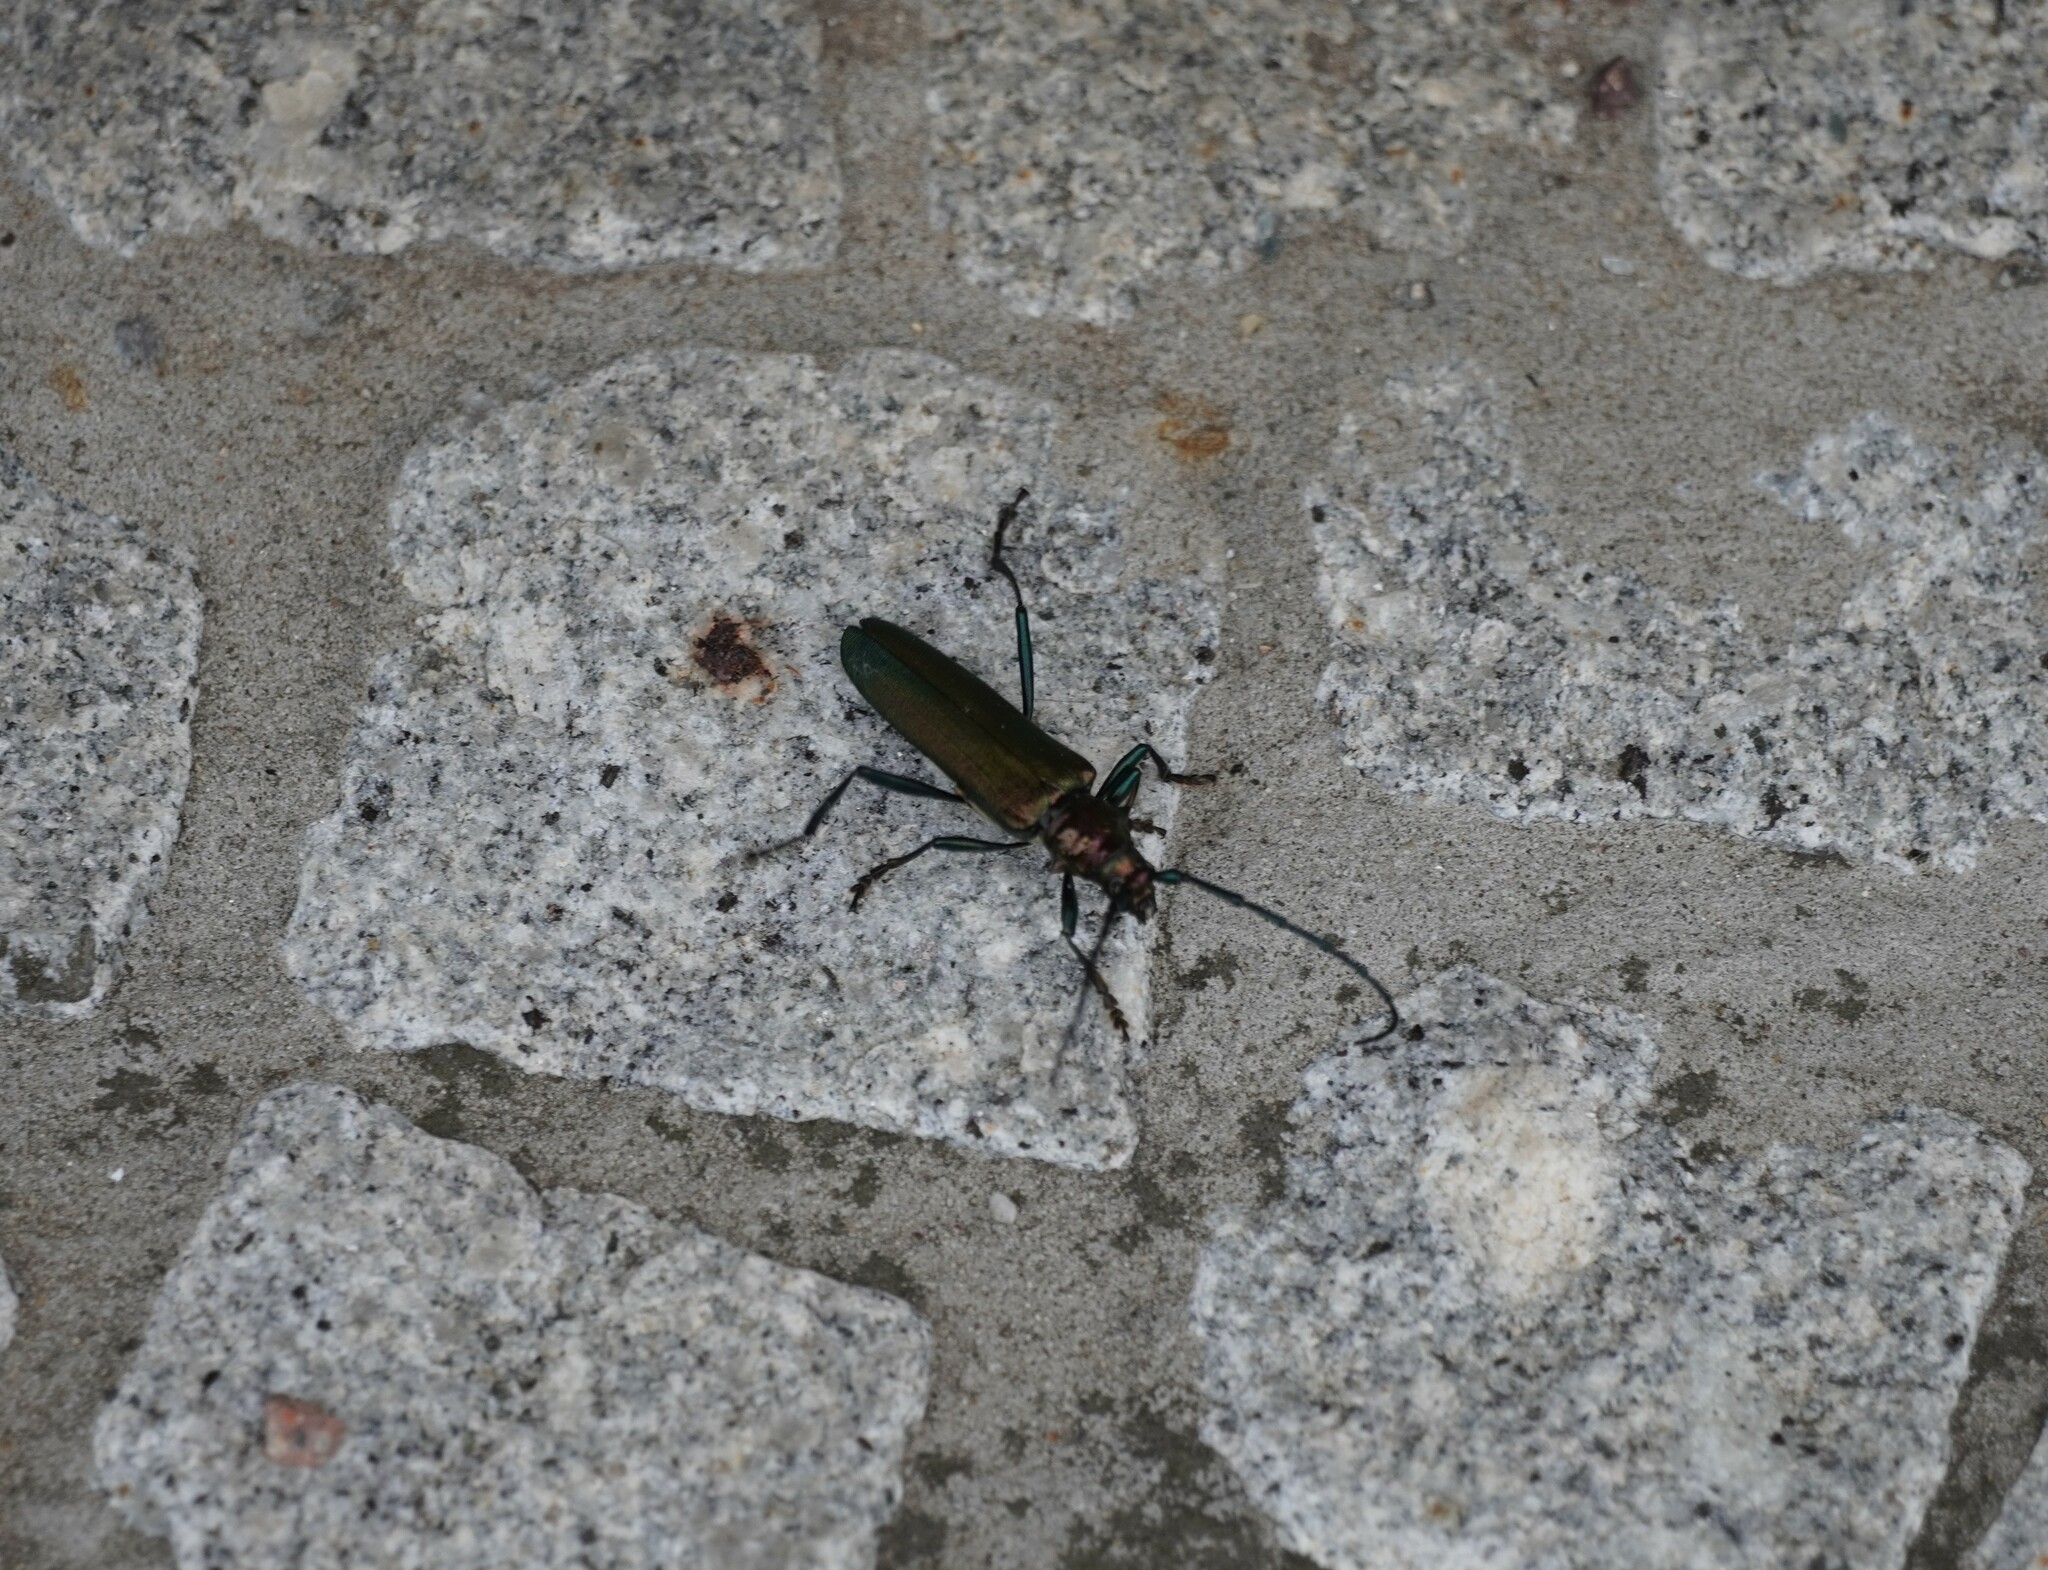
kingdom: Animalia
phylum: Arthropoda
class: Insecta
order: Coleoptera
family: Cerambycidae
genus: Aromia
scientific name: Aromia moschata
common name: Musk beetle
